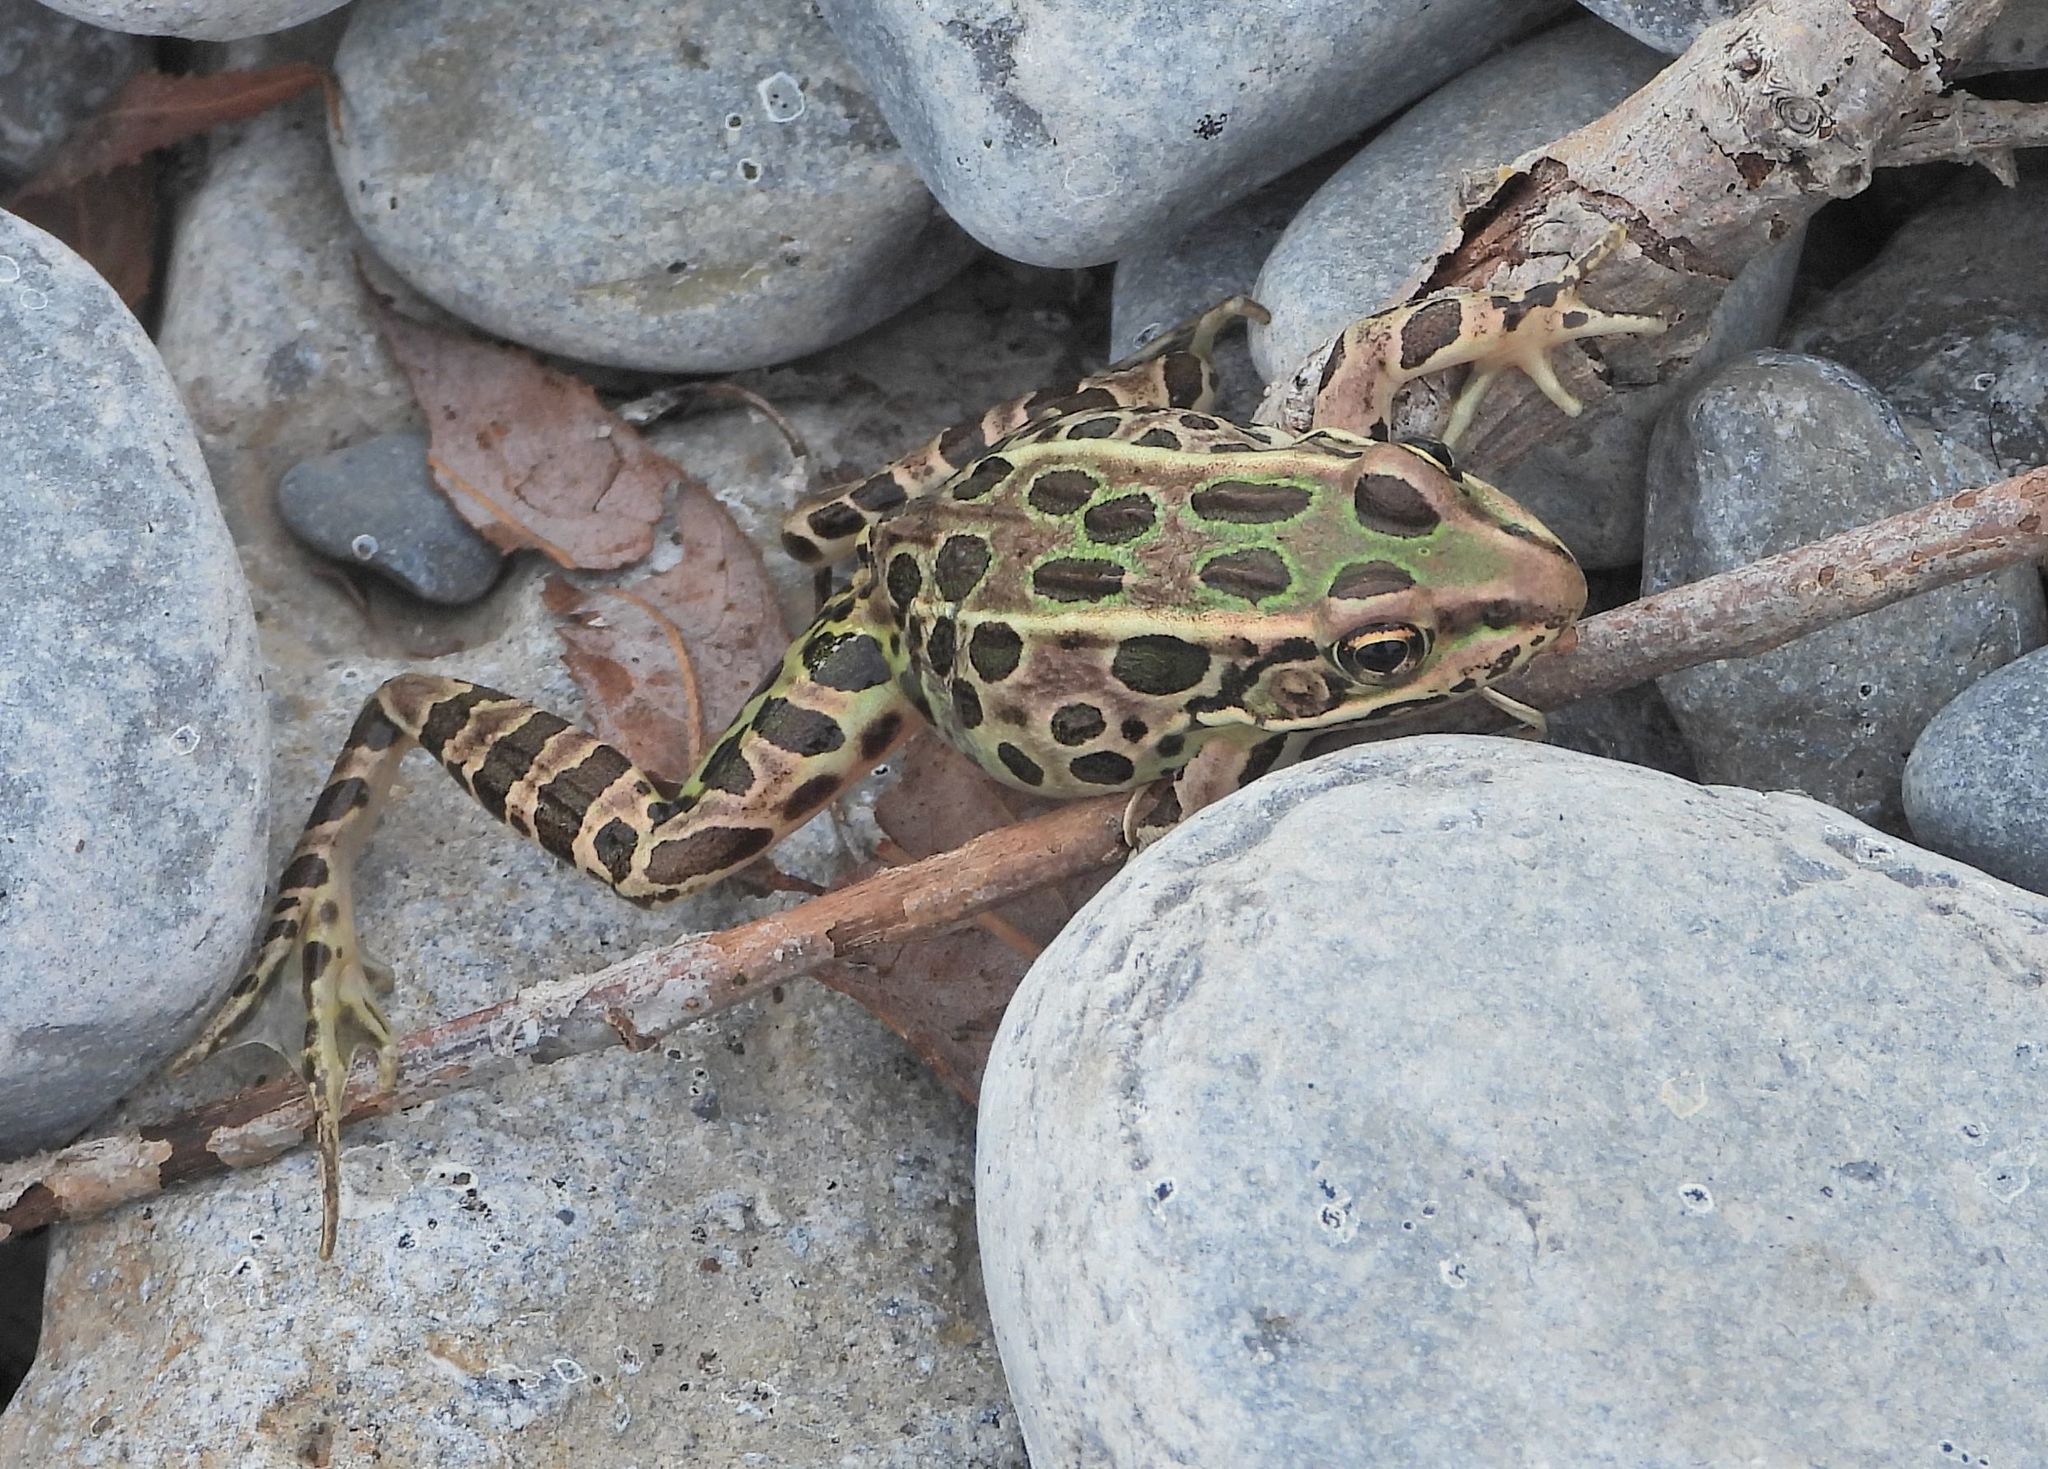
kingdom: Animalia
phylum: Chordata
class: Amphibia
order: Anura
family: Ranidae
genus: Lithobates
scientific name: Lithobates pipiens
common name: Northern leopard frog
